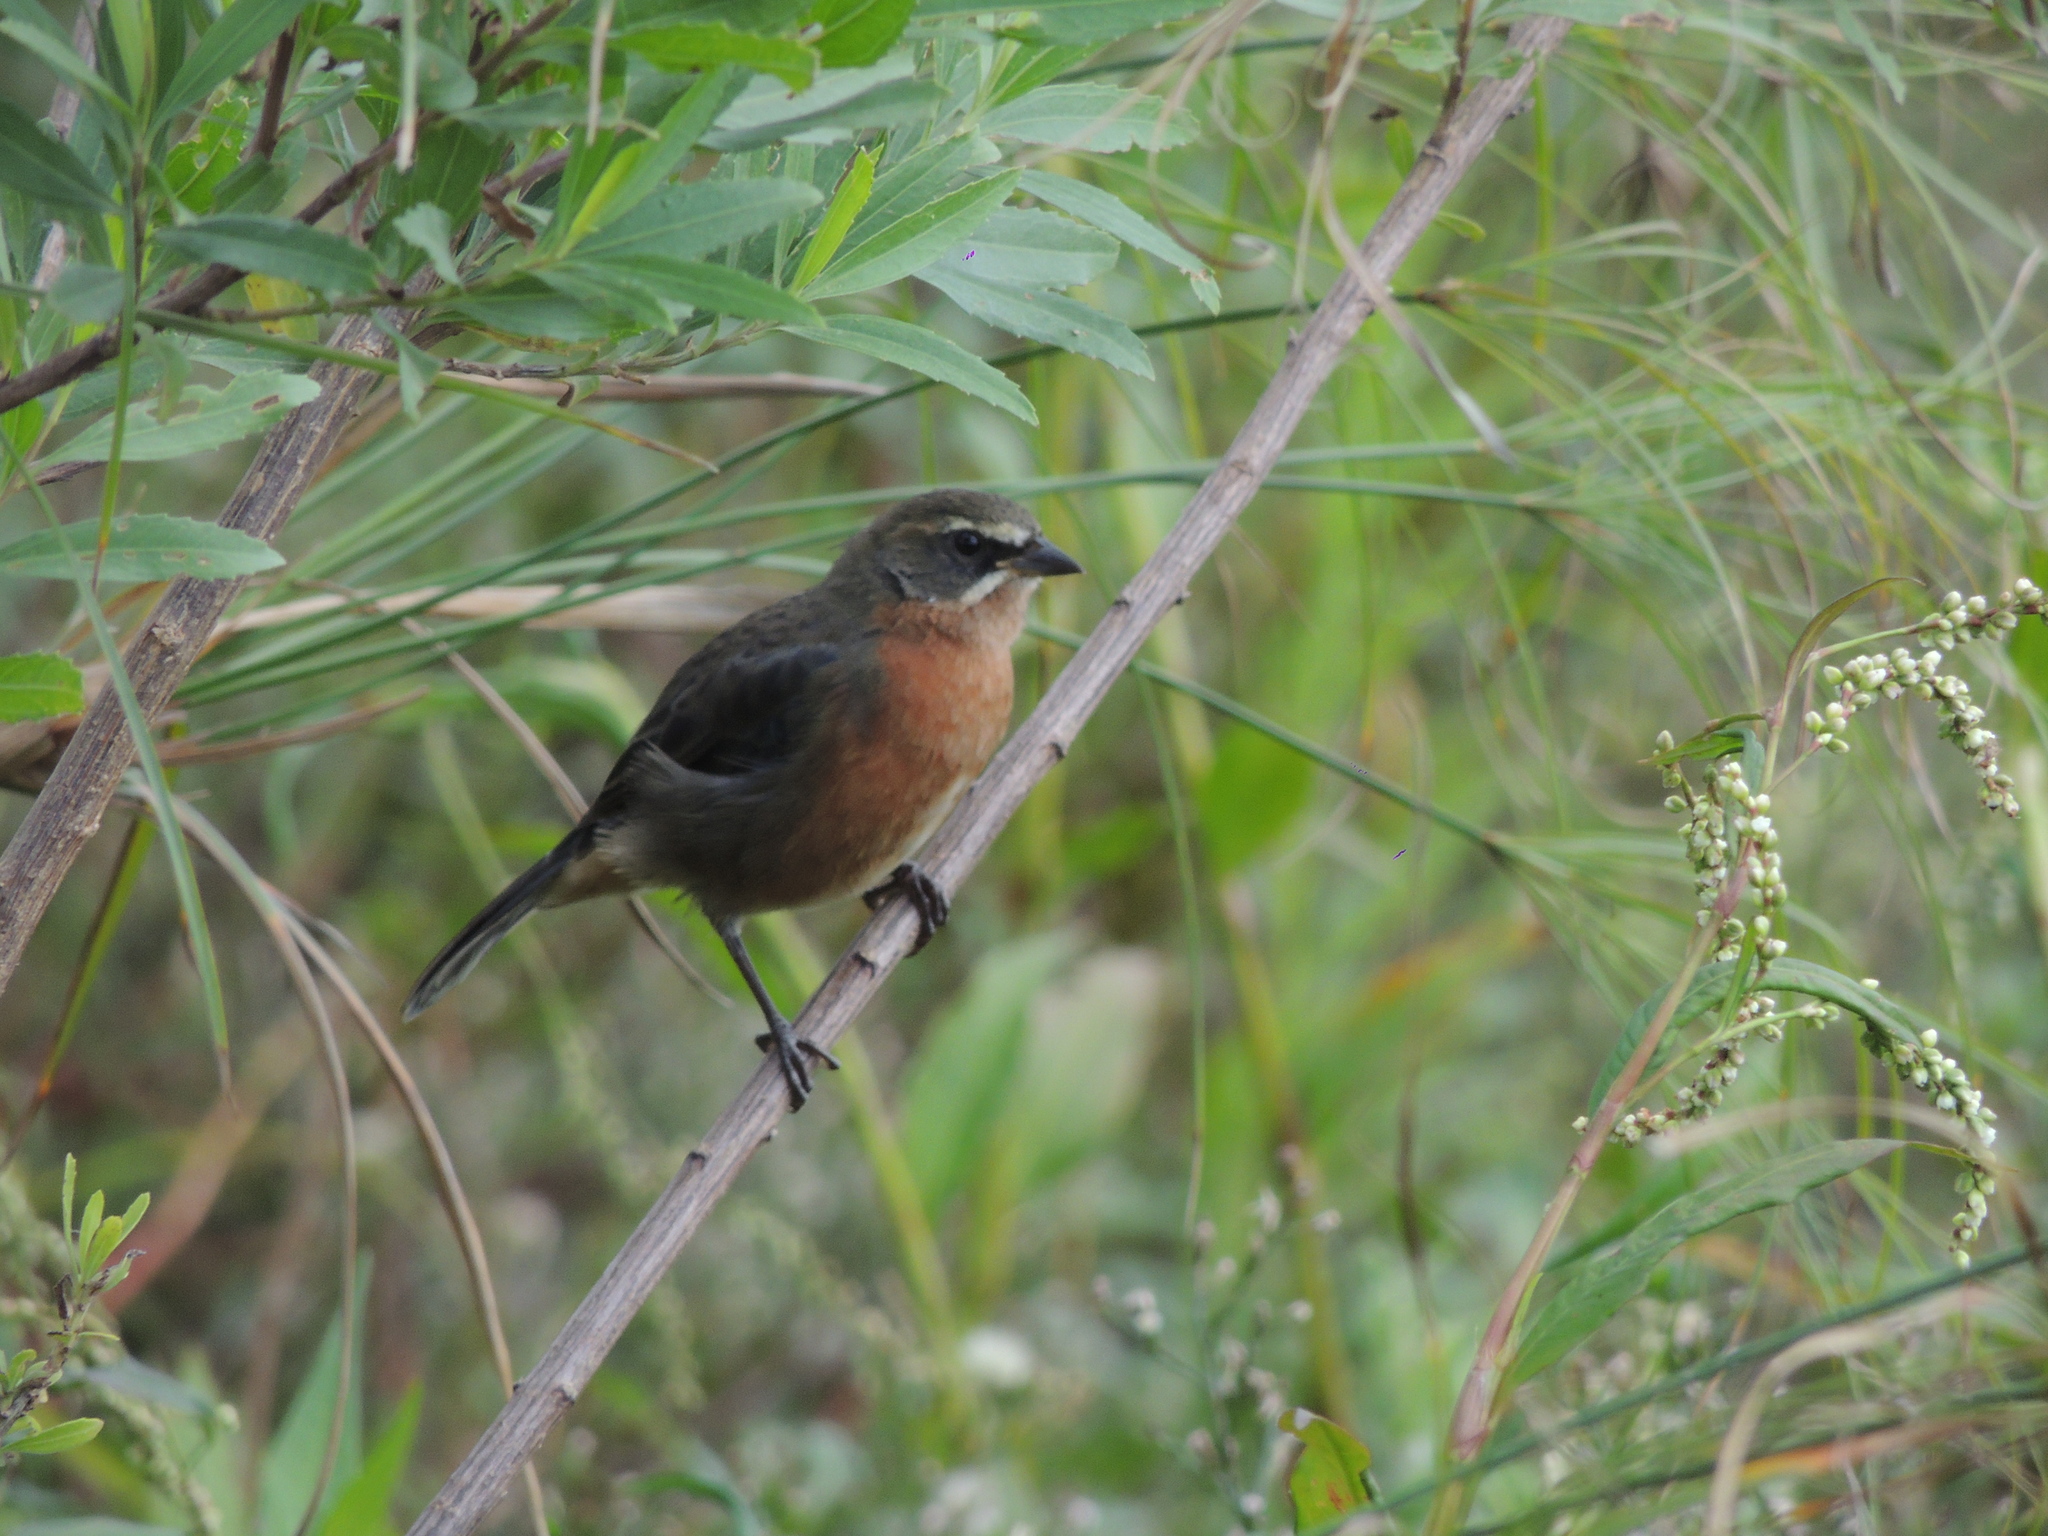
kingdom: Animalia
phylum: Chordata
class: Aves
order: Passeriformes
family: Thraupidae
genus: Poospiza
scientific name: Poospiza nigrorufa
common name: Black-and-rufous warbling finch
